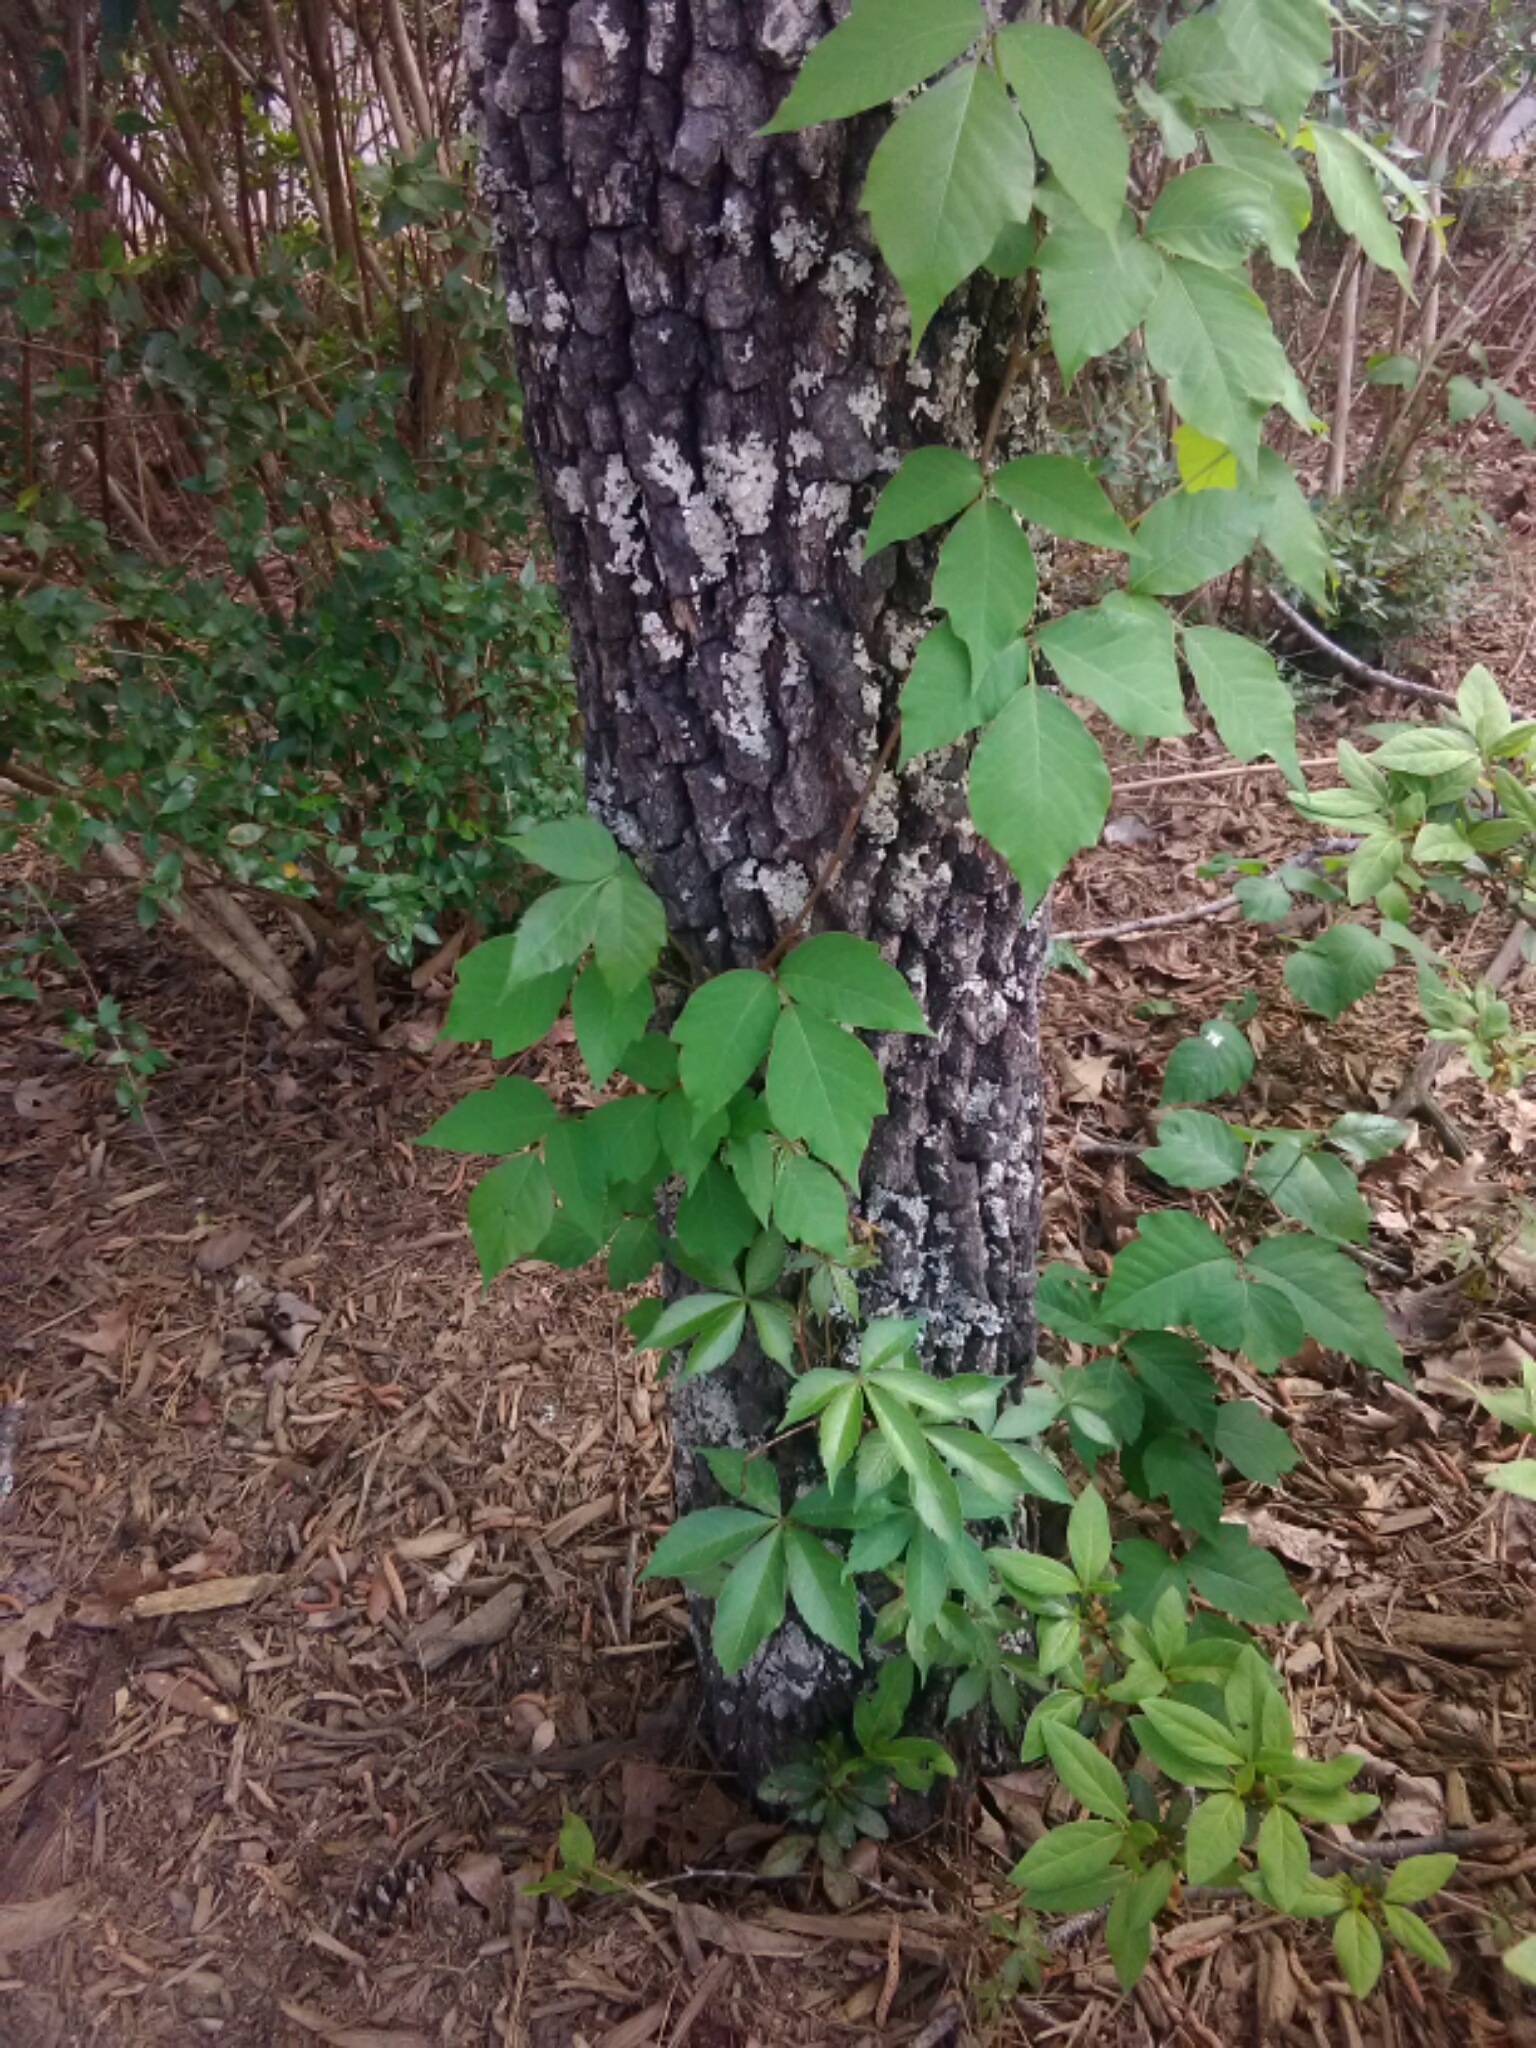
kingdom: Plantae
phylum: Tracheophyta
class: Magnoliopsida
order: Sapindales
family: Anacardiaceae
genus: Toxicodendron
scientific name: Toxicodendron radicans
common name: Poison ivy
